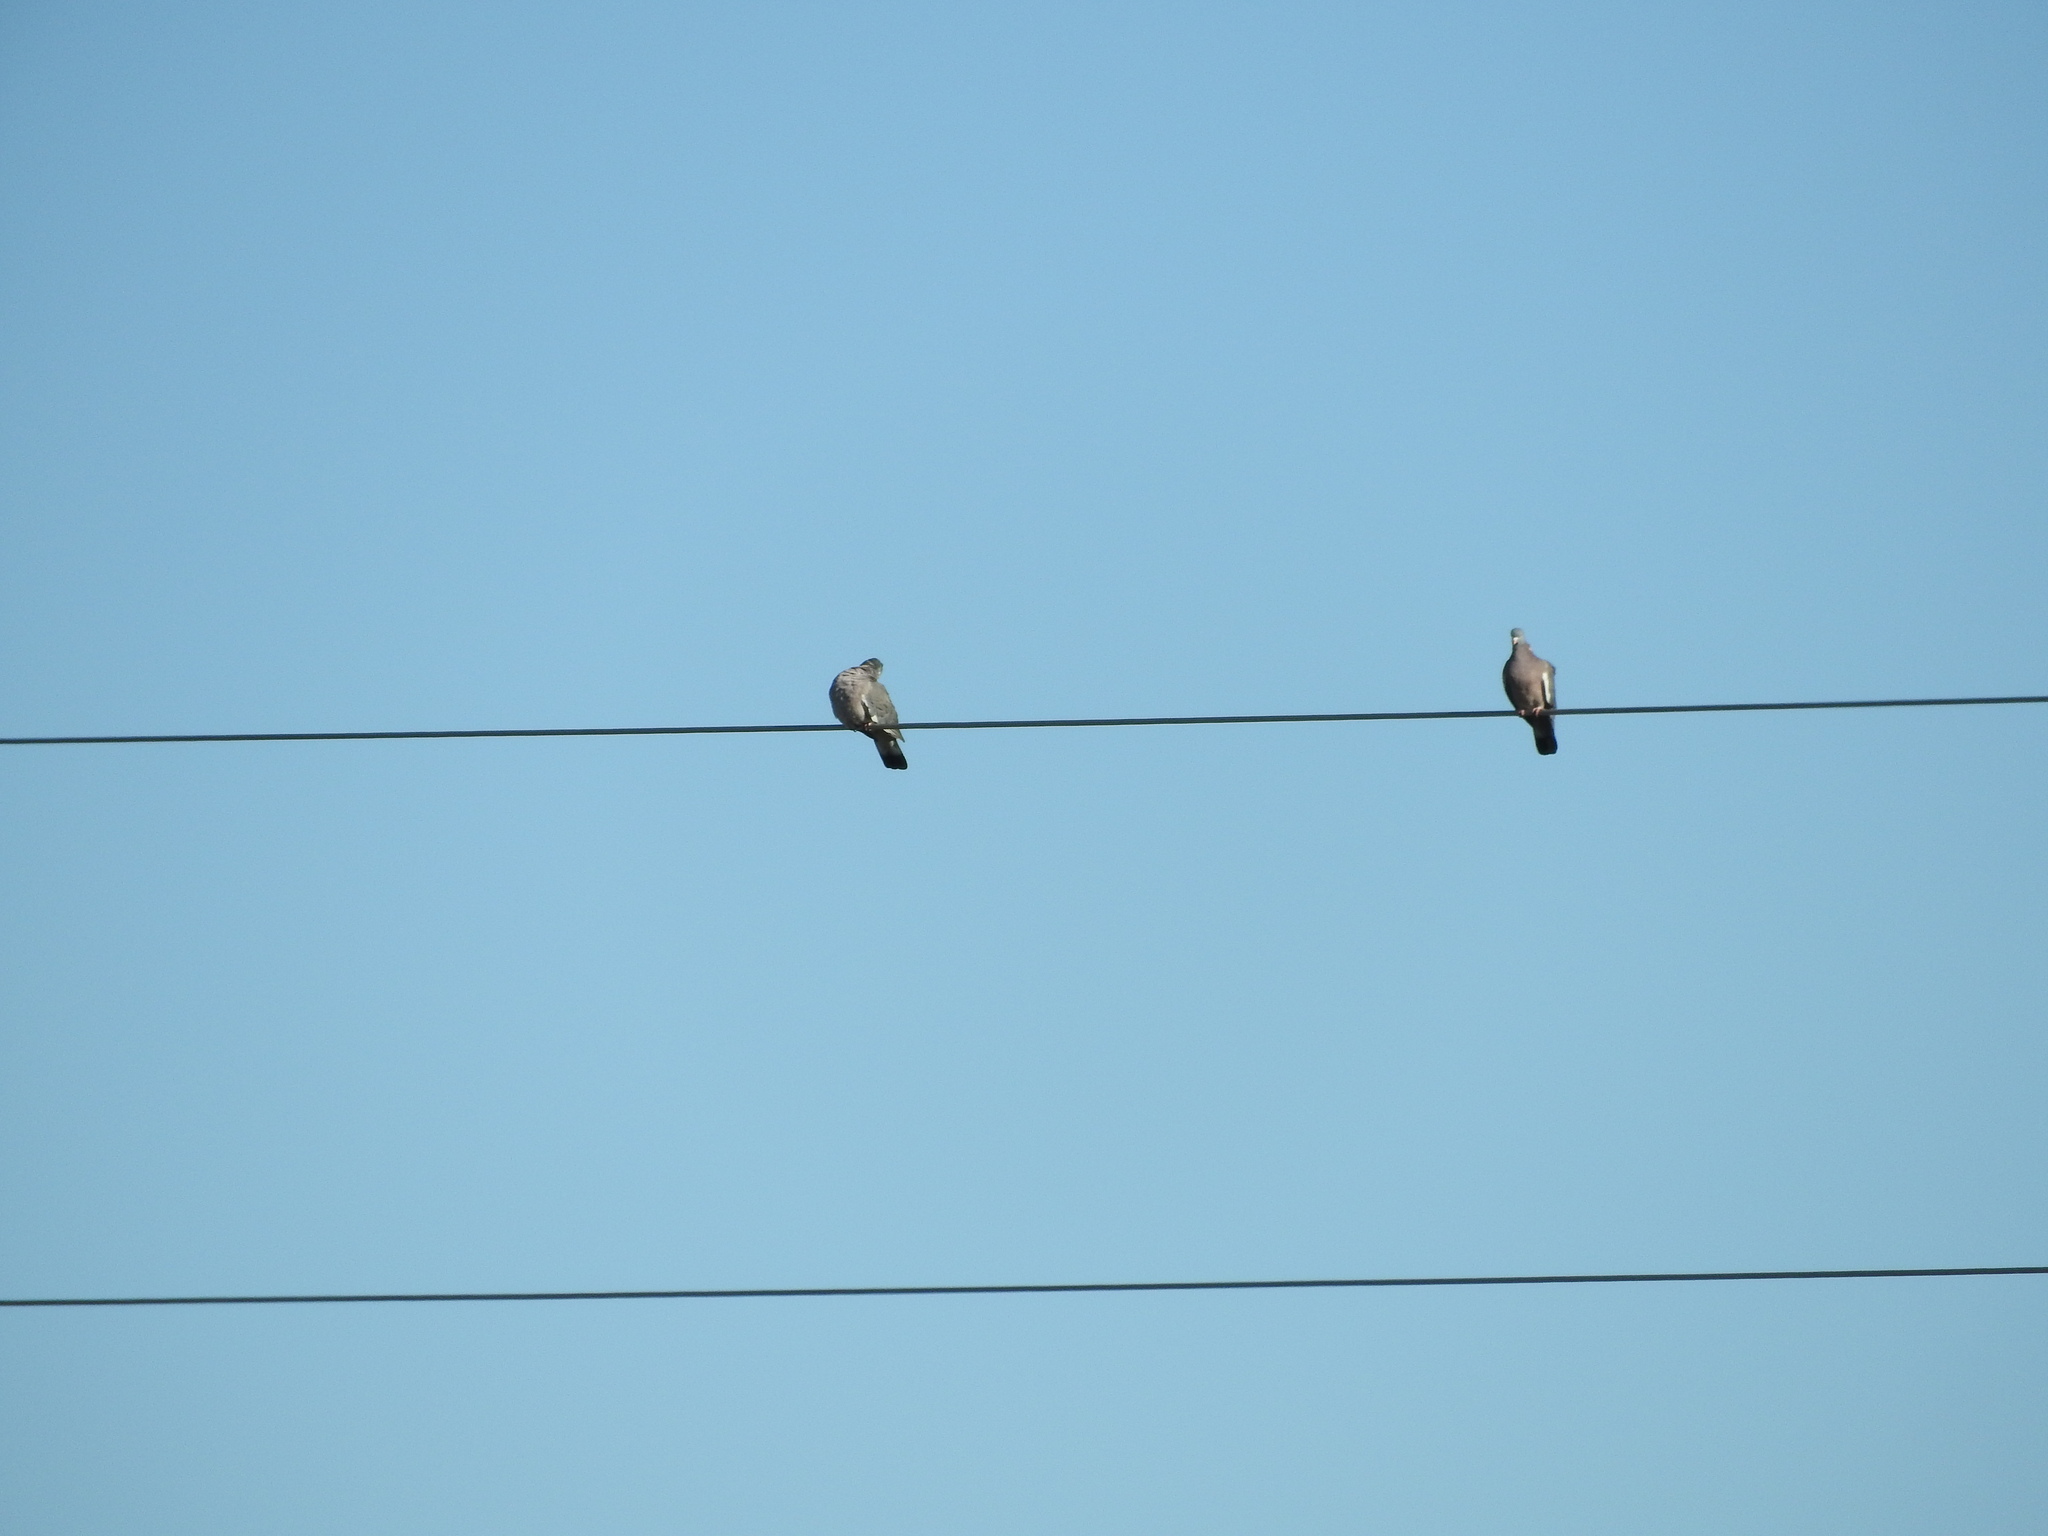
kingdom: Animalia
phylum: Chordata
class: Aves
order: Columbiformes
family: Columbidae
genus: Columba
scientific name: Columba palumbus
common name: Common wood pigeon
